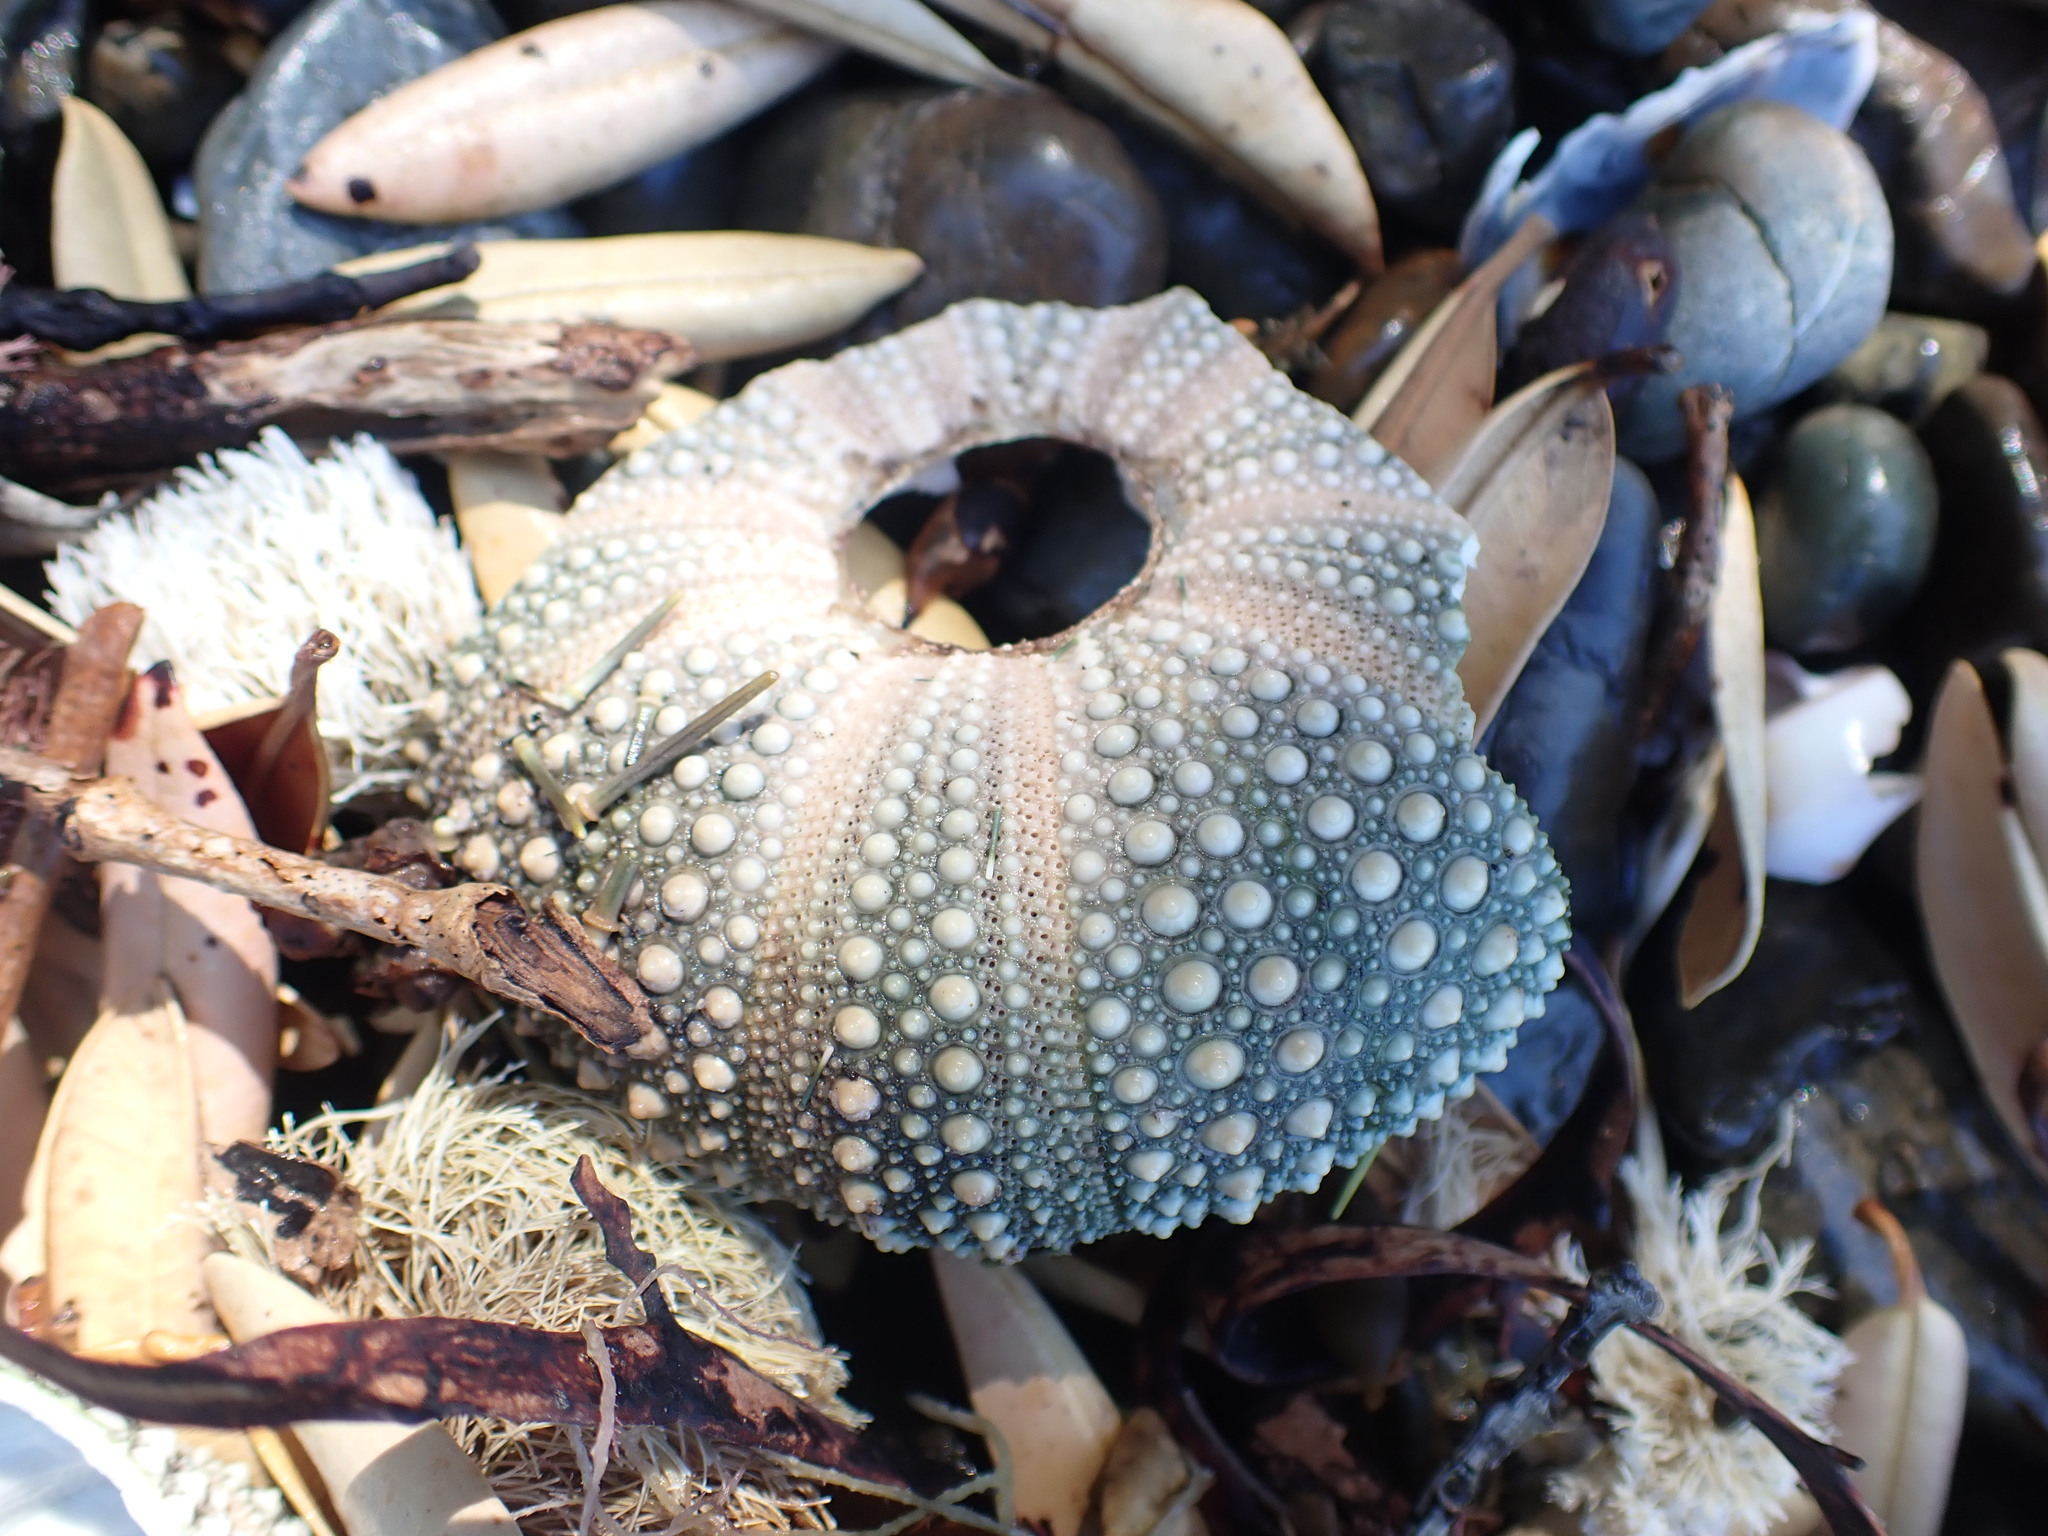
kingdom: Animalia
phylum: Echinodermata
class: Echinoidea
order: Camarodonta
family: Echinometridae
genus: Evechinus
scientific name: Evechinus chloroticus
